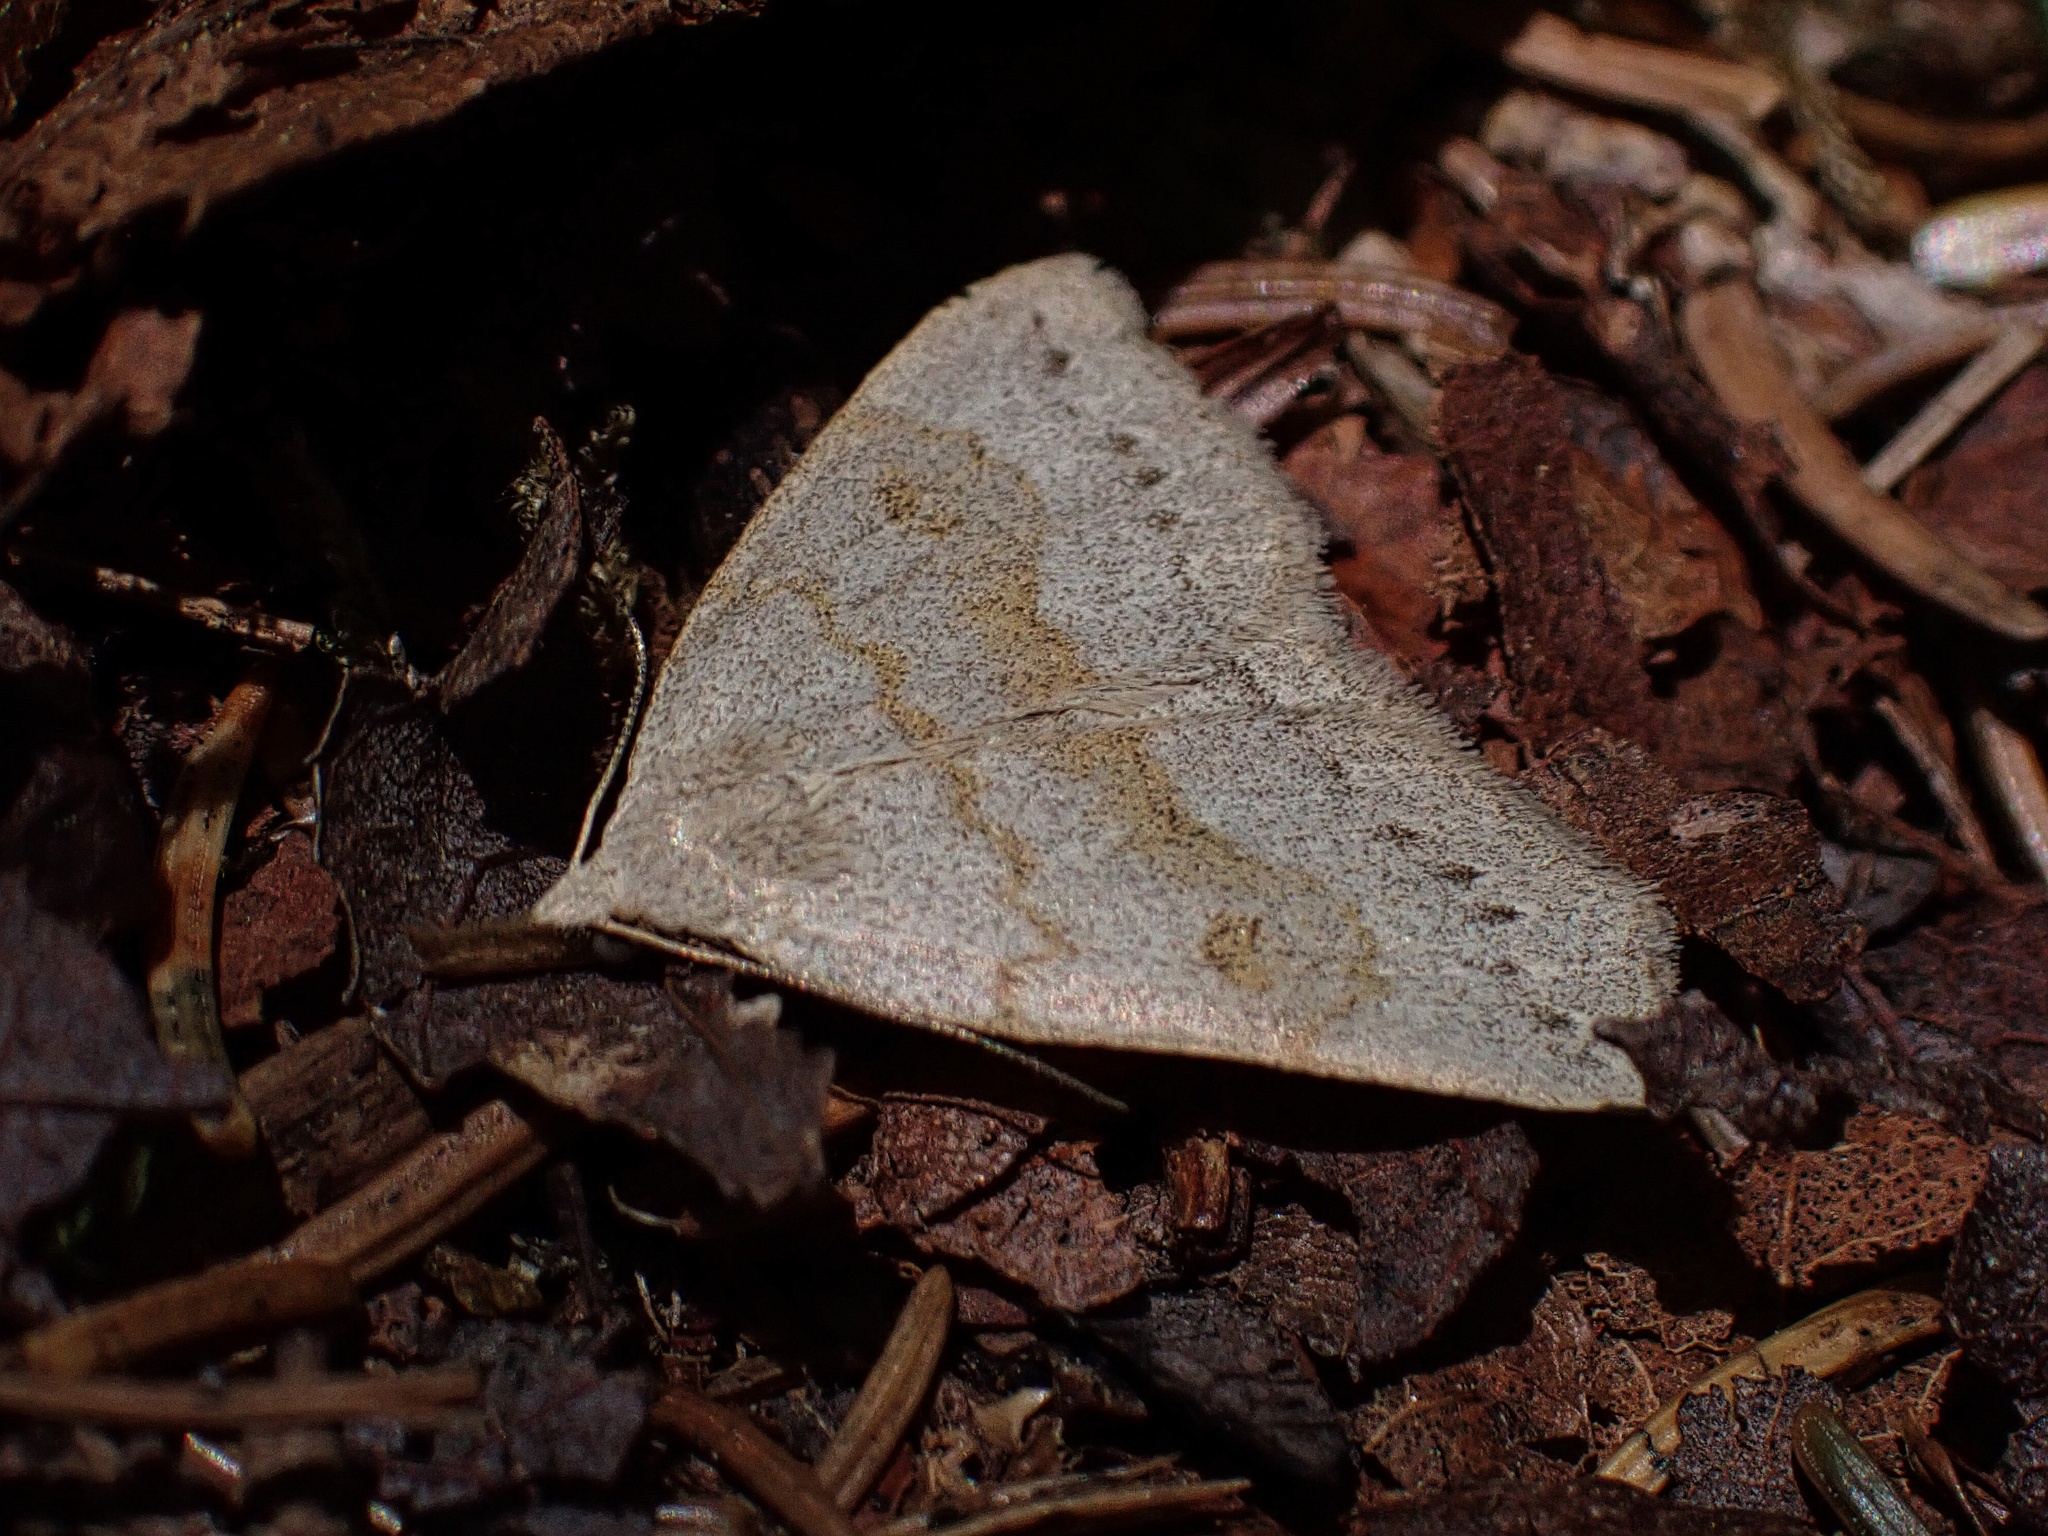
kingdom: Animalia
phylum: Arthropoda
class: Insecta
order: Lepidoptera
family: Erebidae
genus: Macrochilo
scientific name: Macrochilo morbidalis
